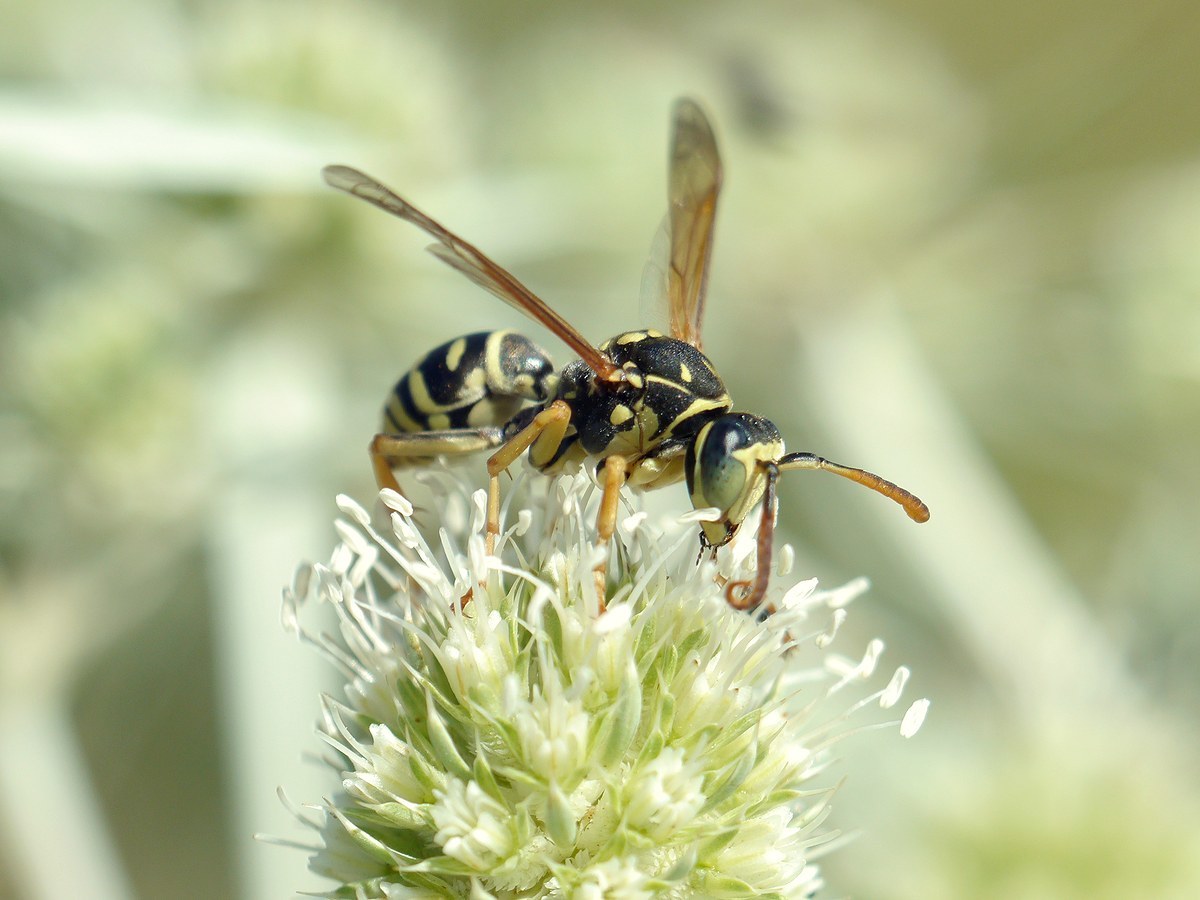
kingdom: Animalia
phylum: Arthropoda
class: Insecta
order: Hymenoptera
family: Eumenidae
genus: Polistes
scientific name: Polistes nimpha
